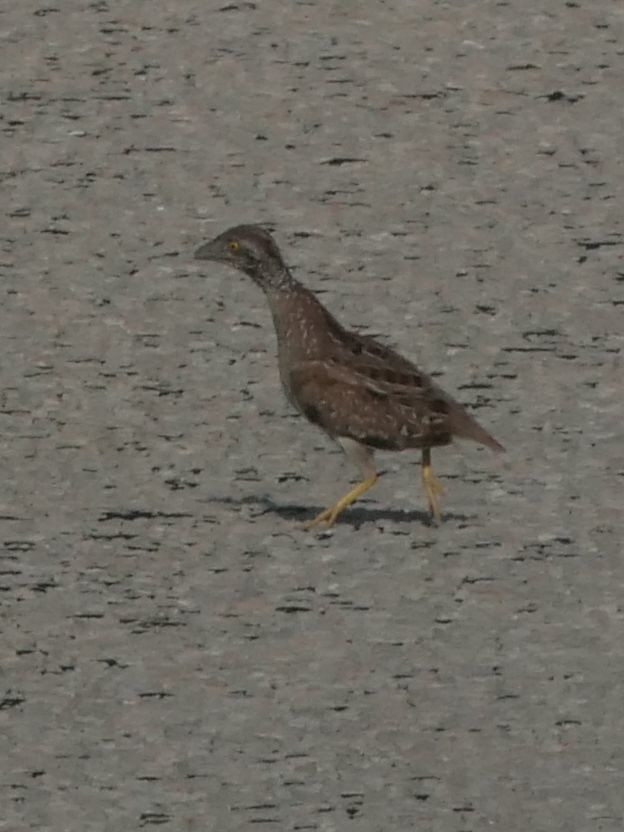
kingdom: Animalia
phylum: Chordata
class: Aves
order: Charadriiformes
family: Turnicidae
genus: Turnix
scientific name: Turnix castanotus
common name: Chestnut-backed buttonquail
